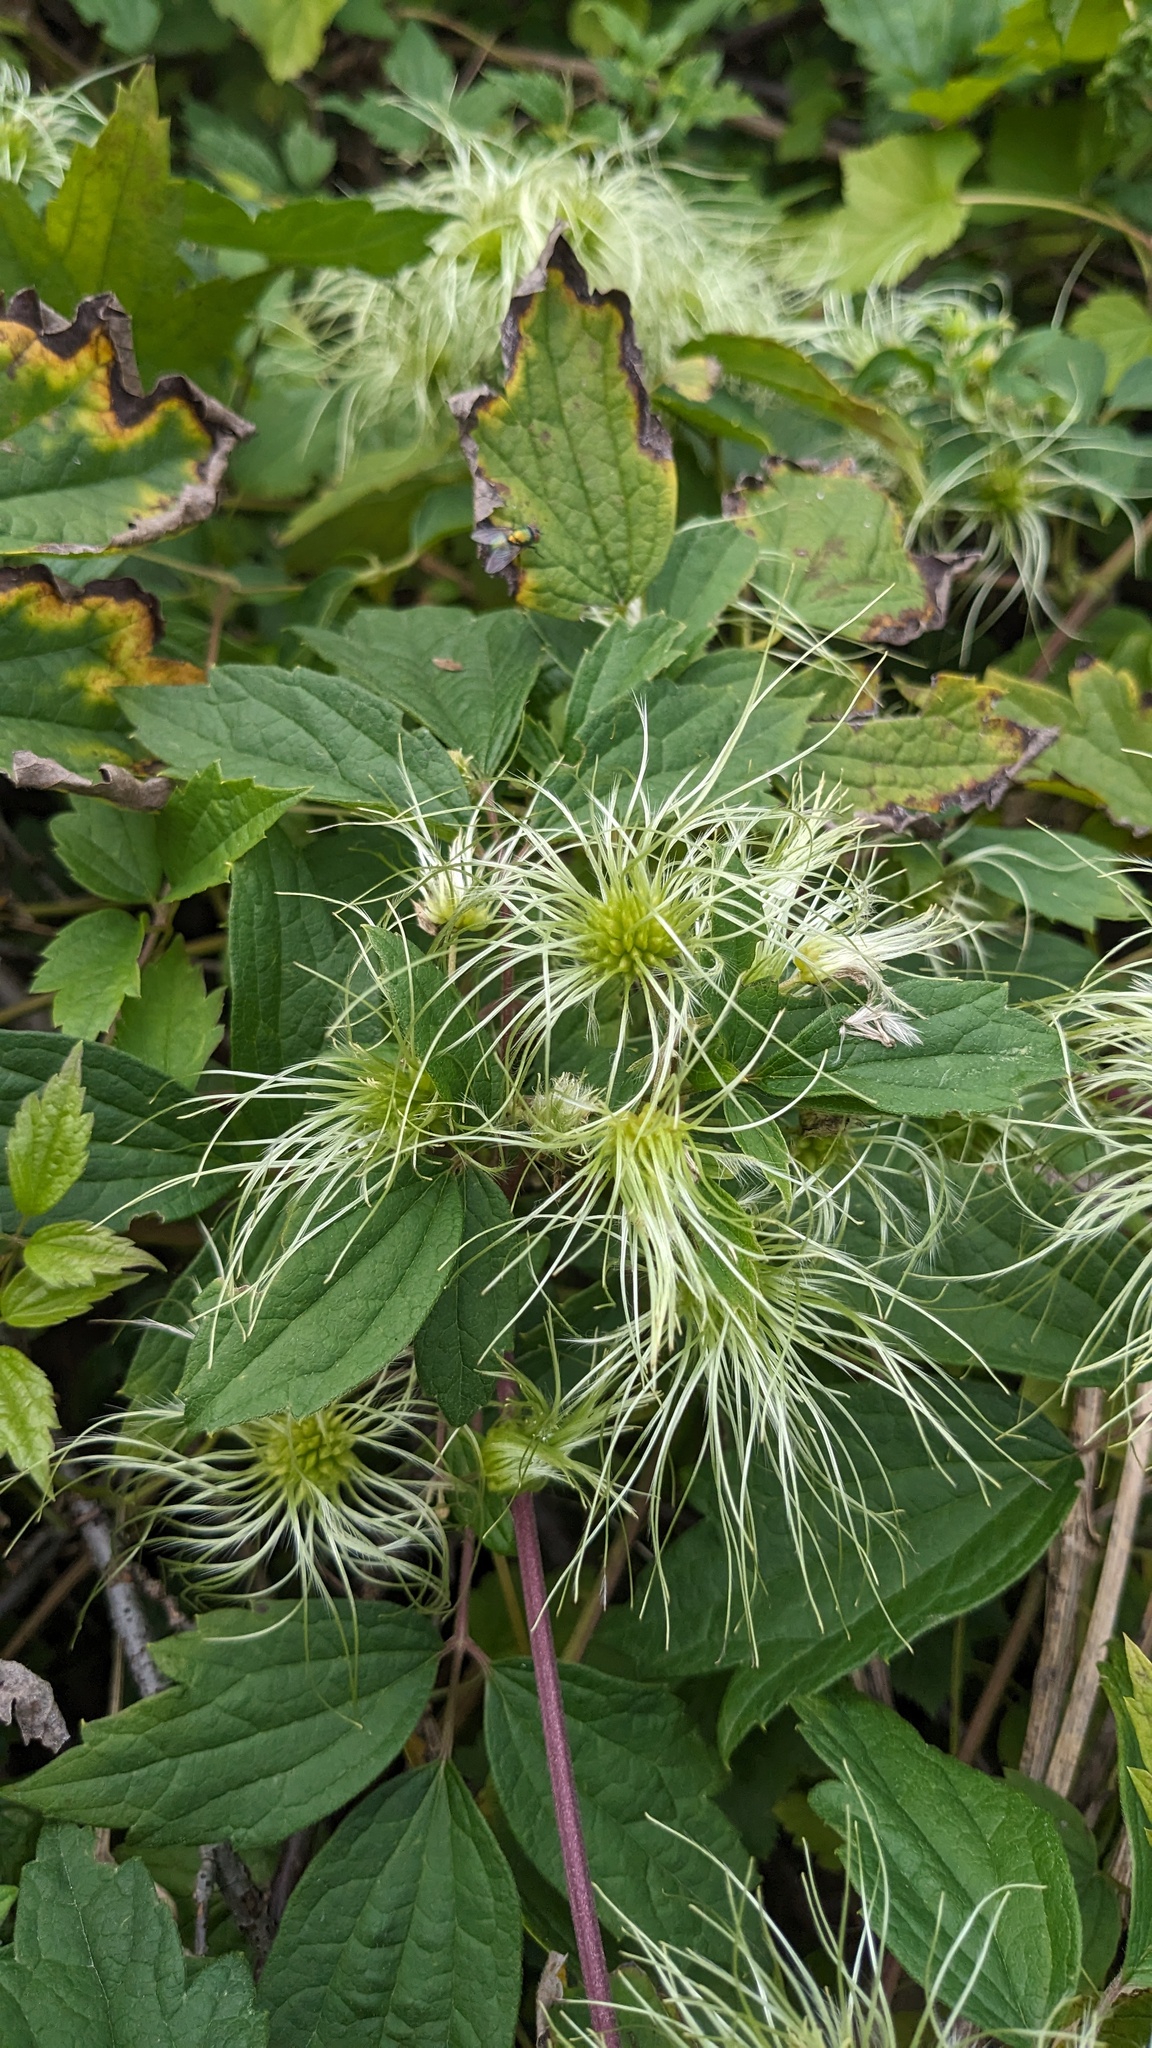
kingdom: Plantae
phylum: Tracheophyta
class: Magnoliopsida
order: Ranunculales
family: Ranunculaceae
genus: Clematis
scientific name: Clematis virginiana
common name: Virgin's-bower
